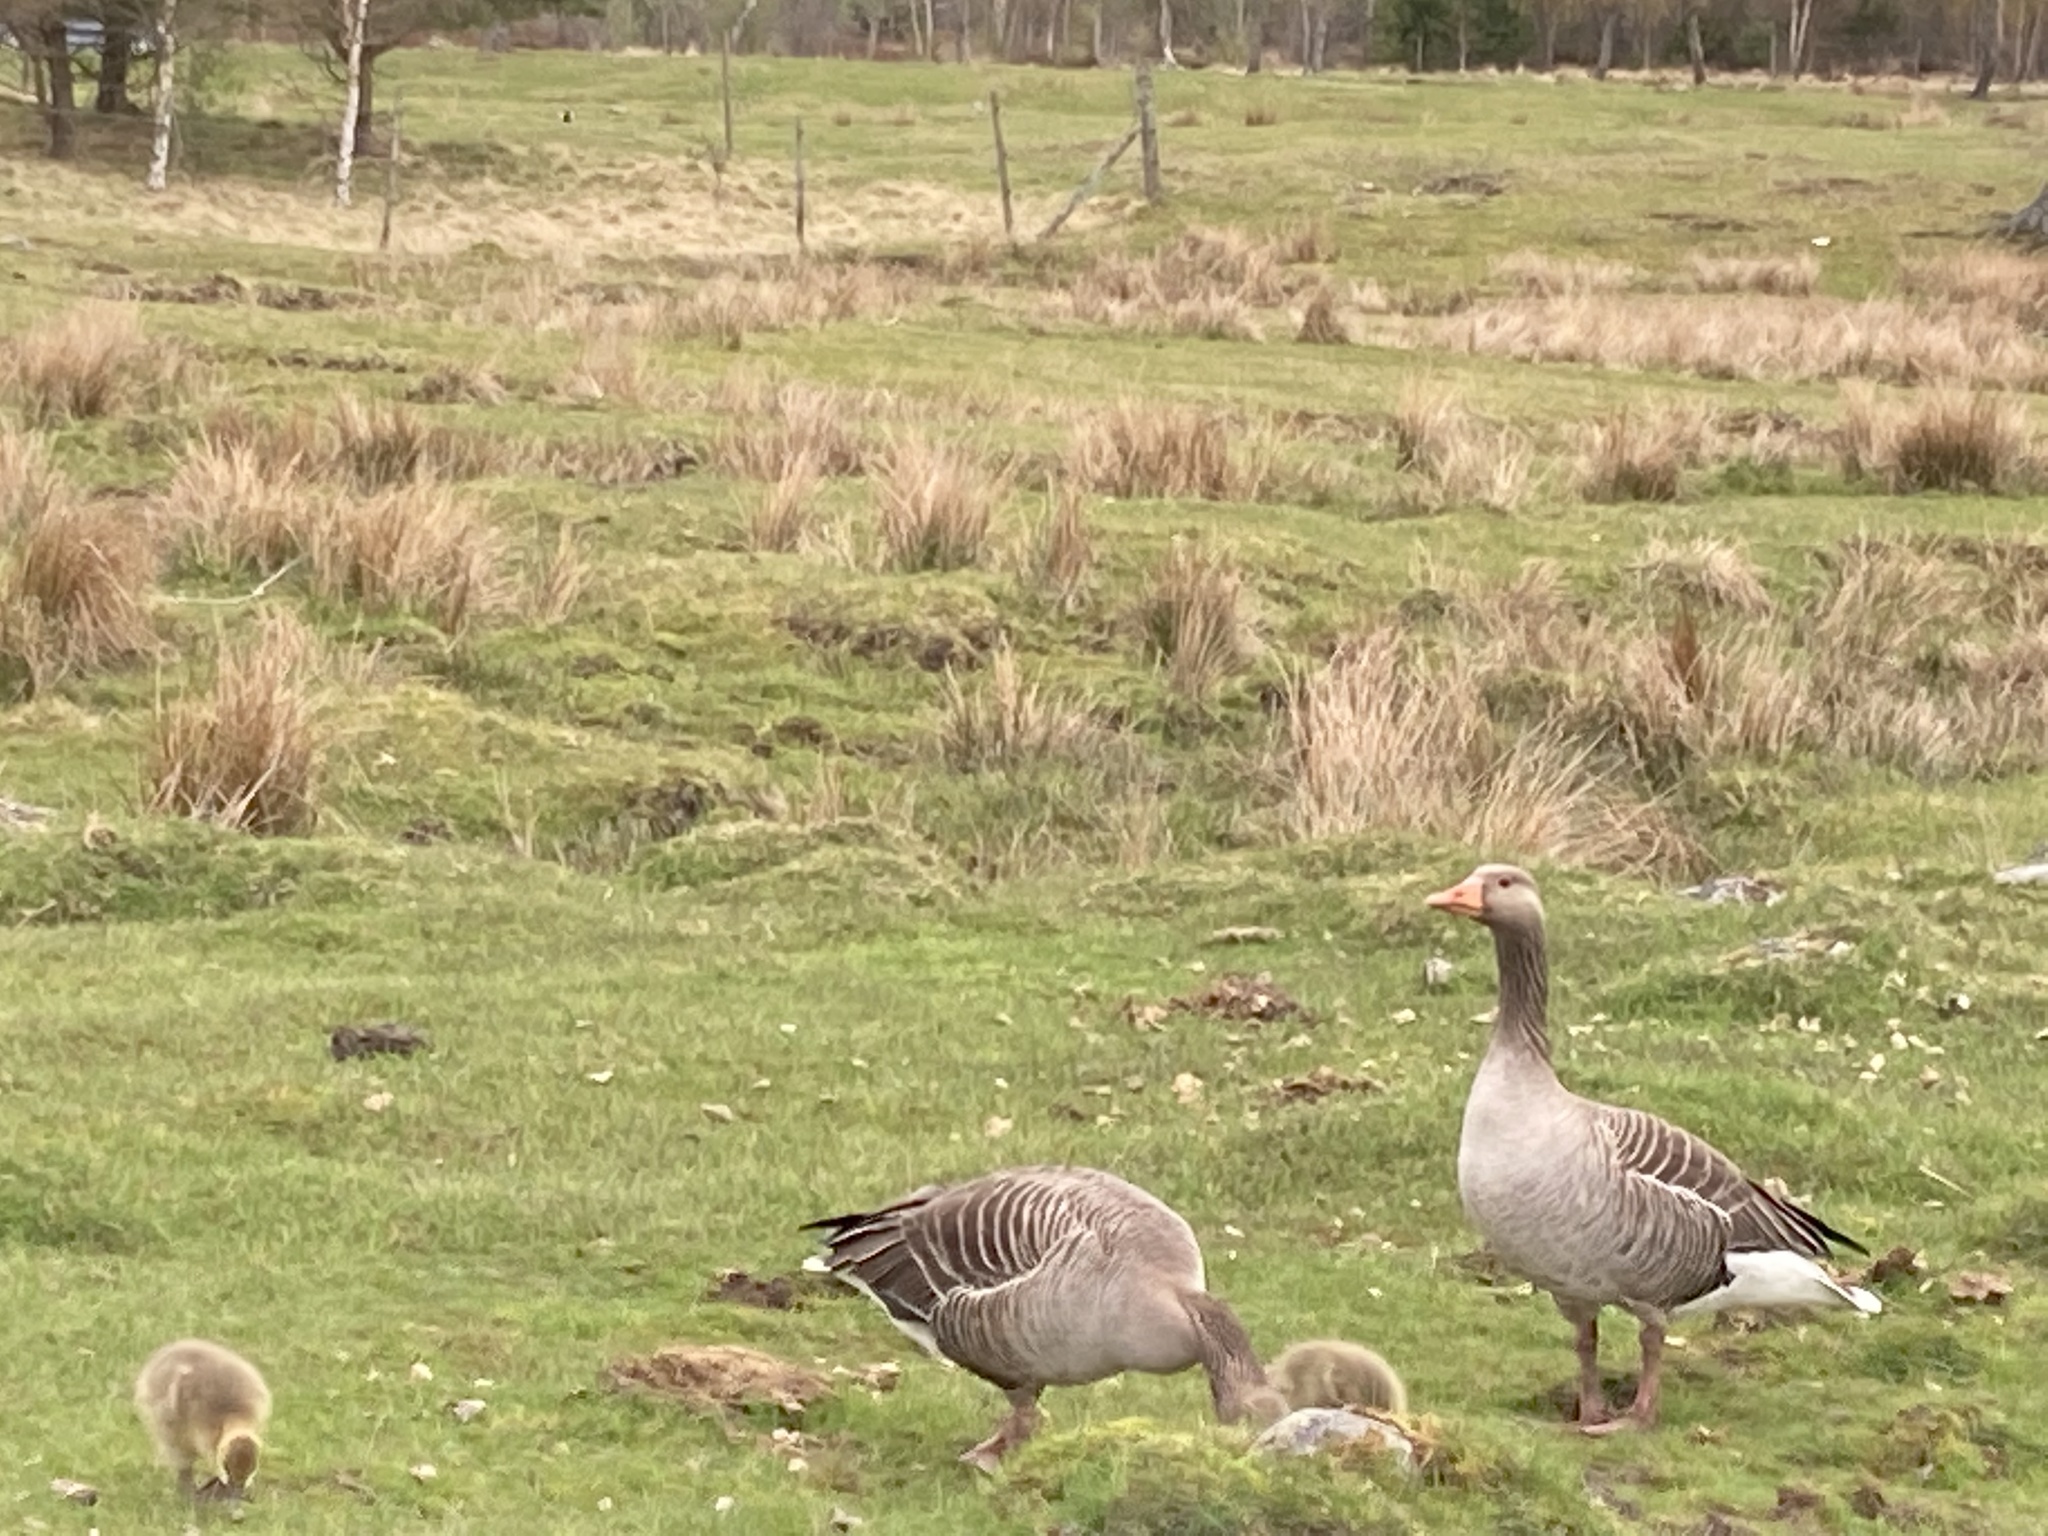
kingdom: Animalia
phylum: Chordata
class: Aves
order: Anseriformes
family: Anatidae
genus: Anser
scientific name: Anser anser
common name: Greylag goose
